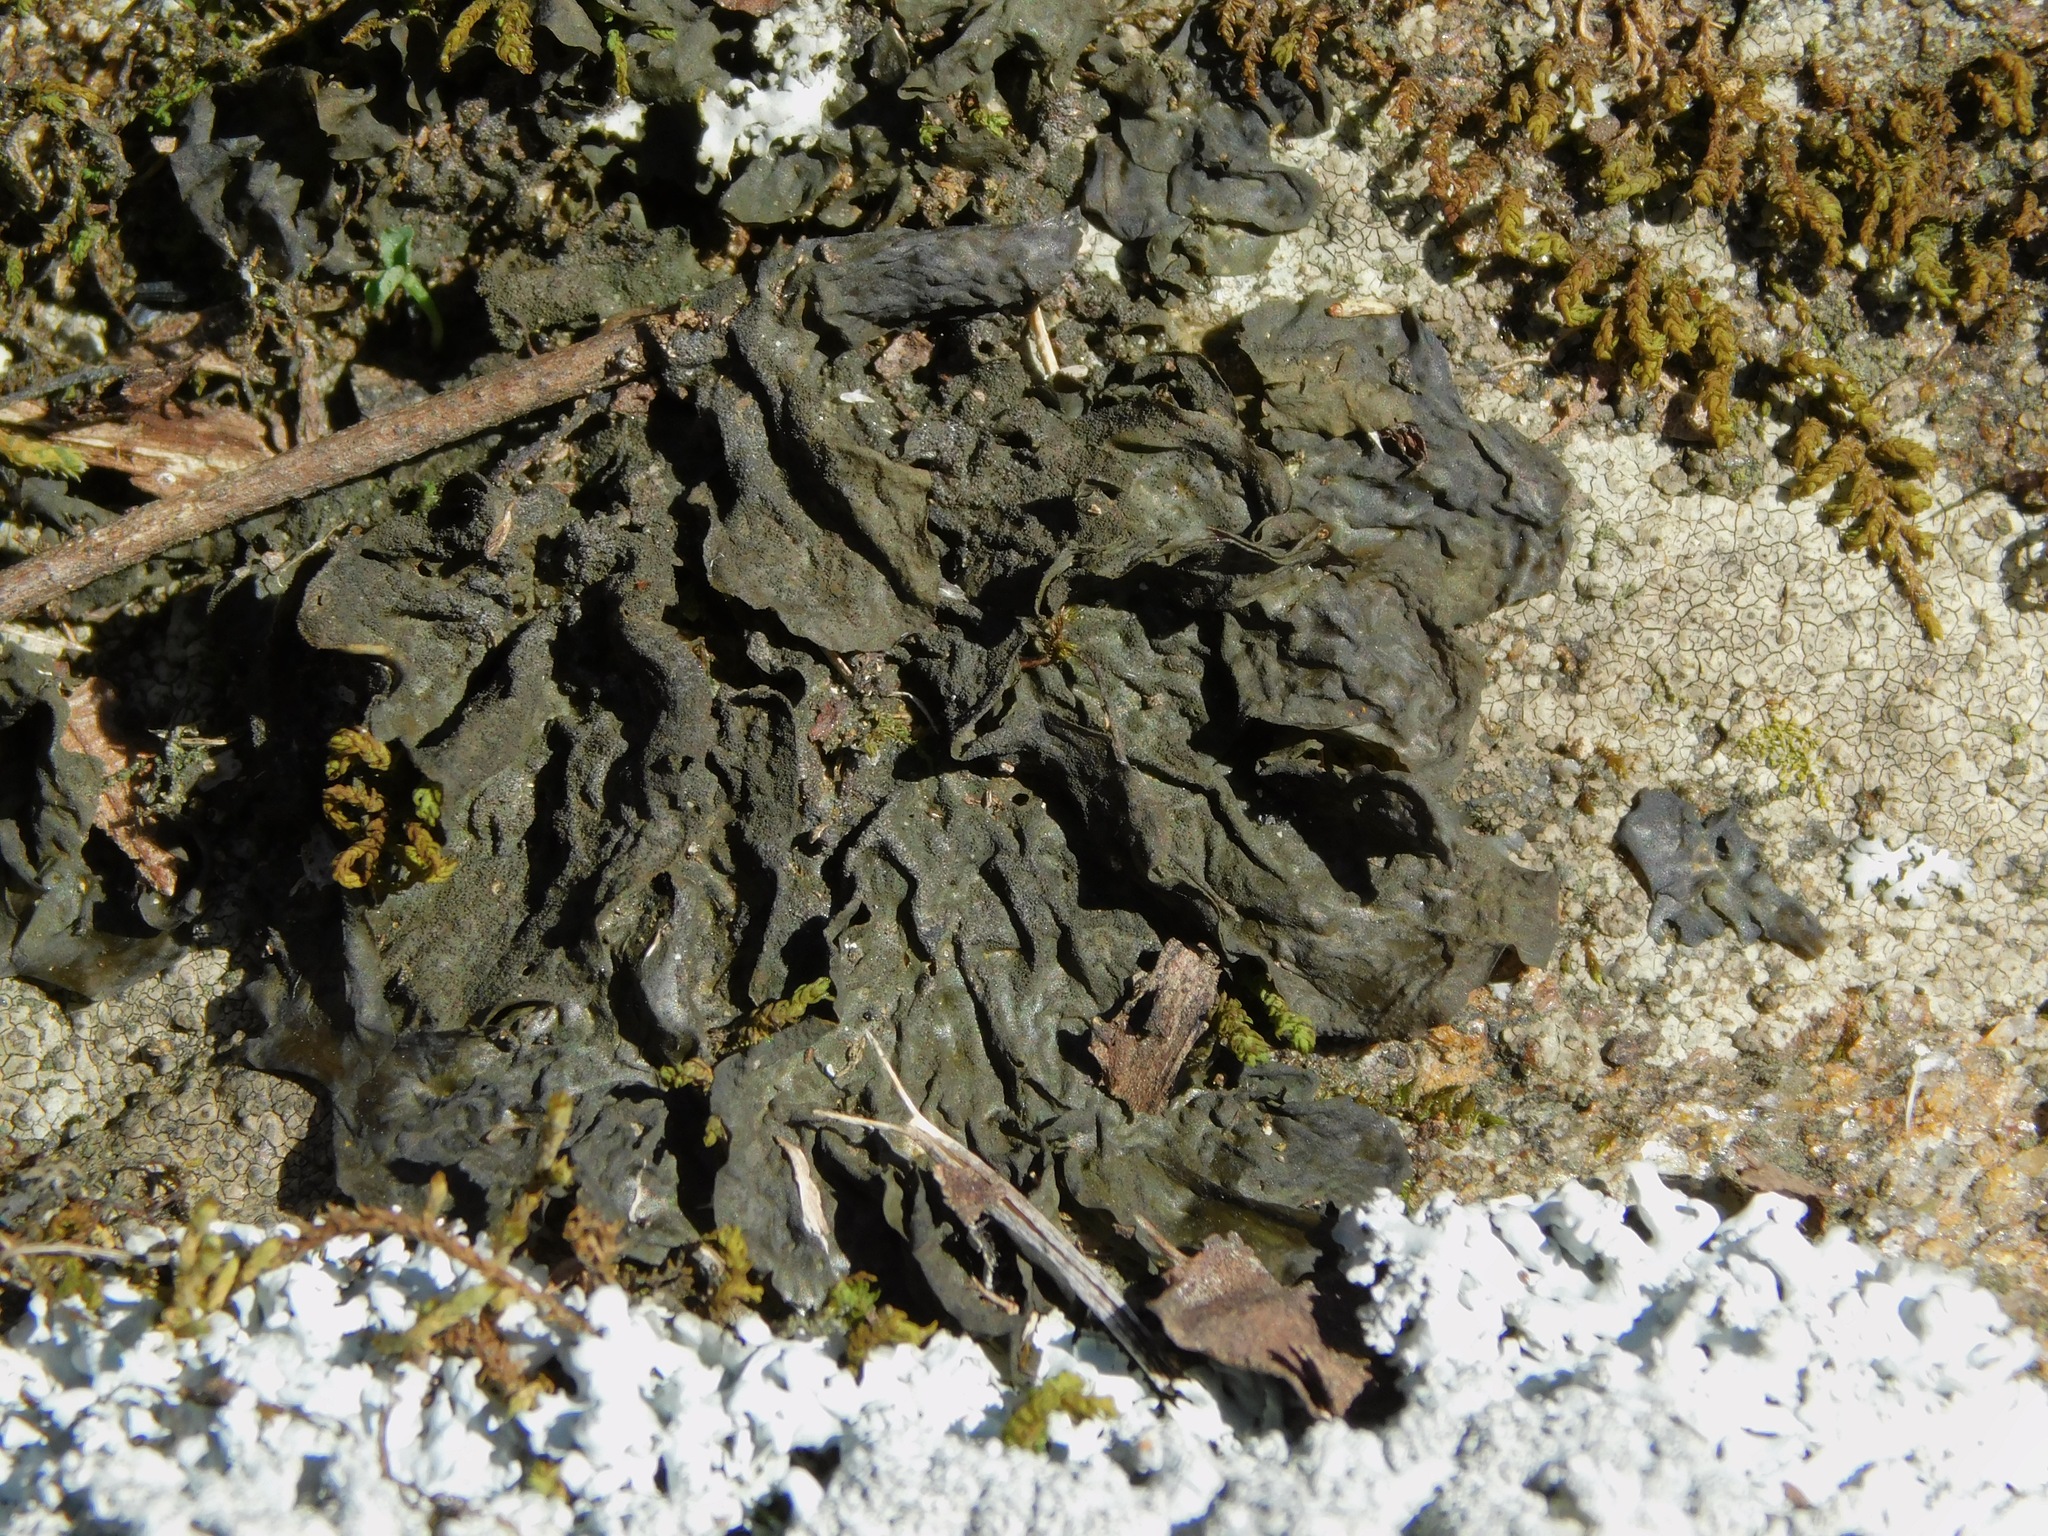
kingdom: Fungi
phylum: Ascomycota
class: Lecanoromycetes
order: Peltigerales
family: Collemataceae
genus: Collema
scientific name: Collema furfuraceum
